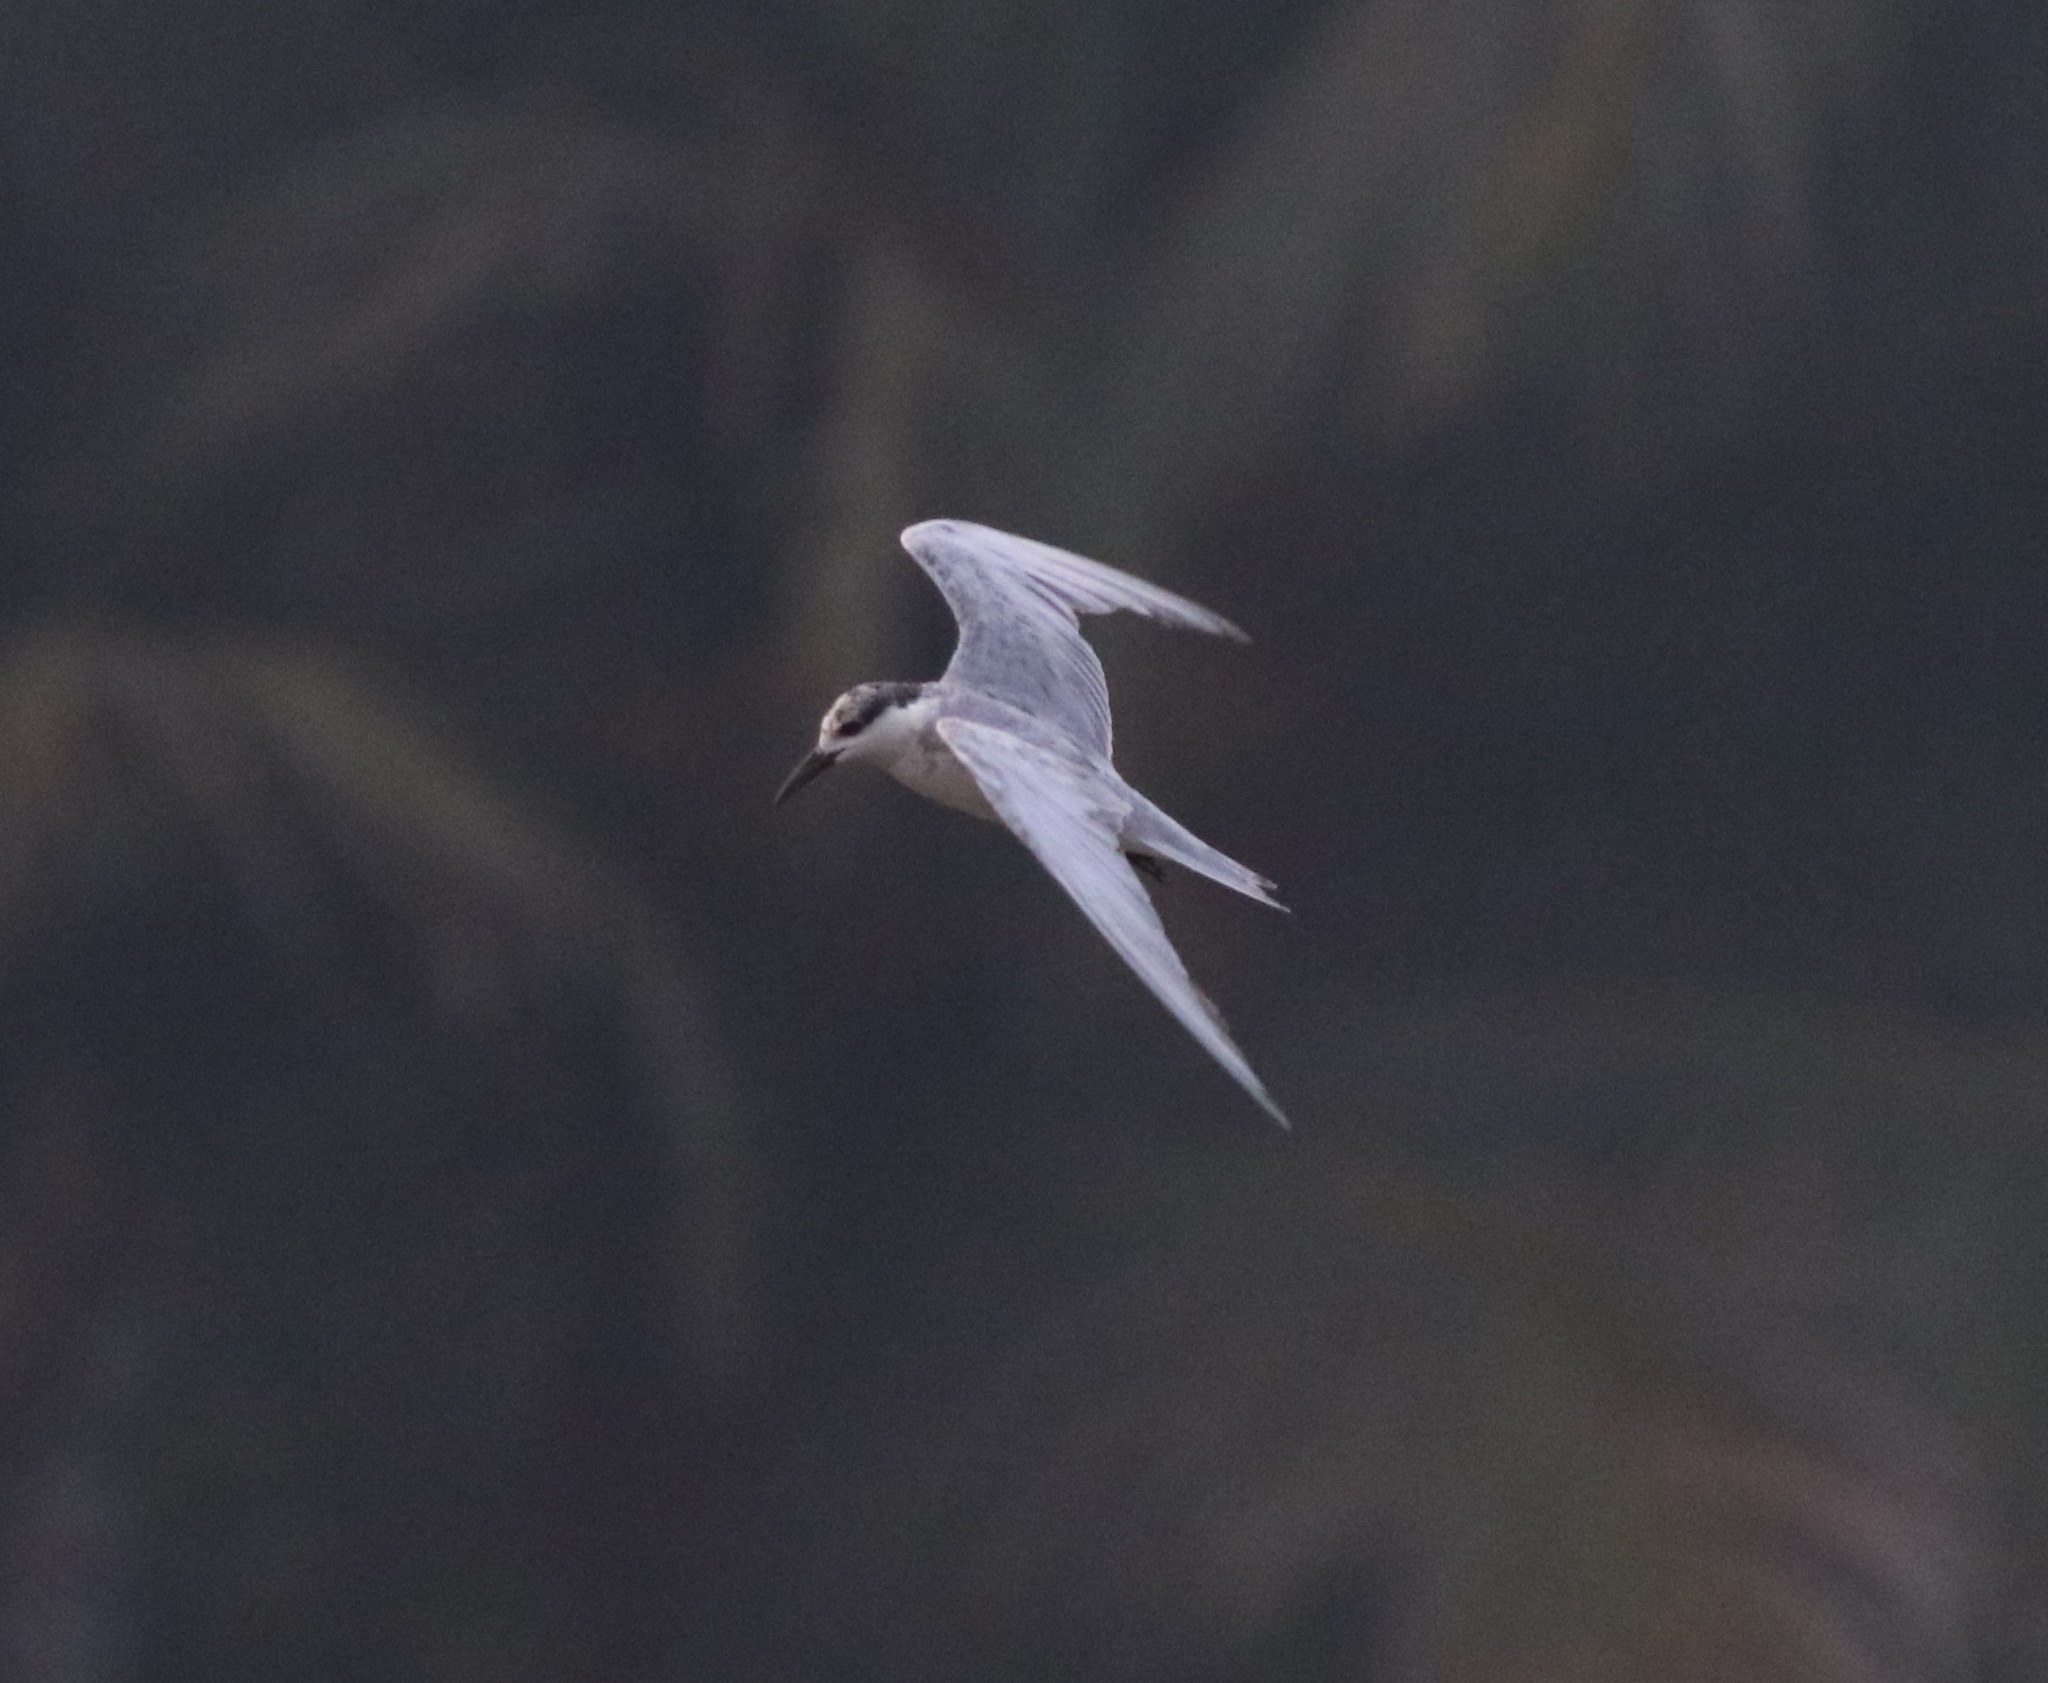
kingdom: Animalia
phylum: Chordata
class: Aves
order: Charadriiformes
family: Laridae
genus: Chlidonias
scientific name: Chlidonias hybrida
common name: Whiskered tern
